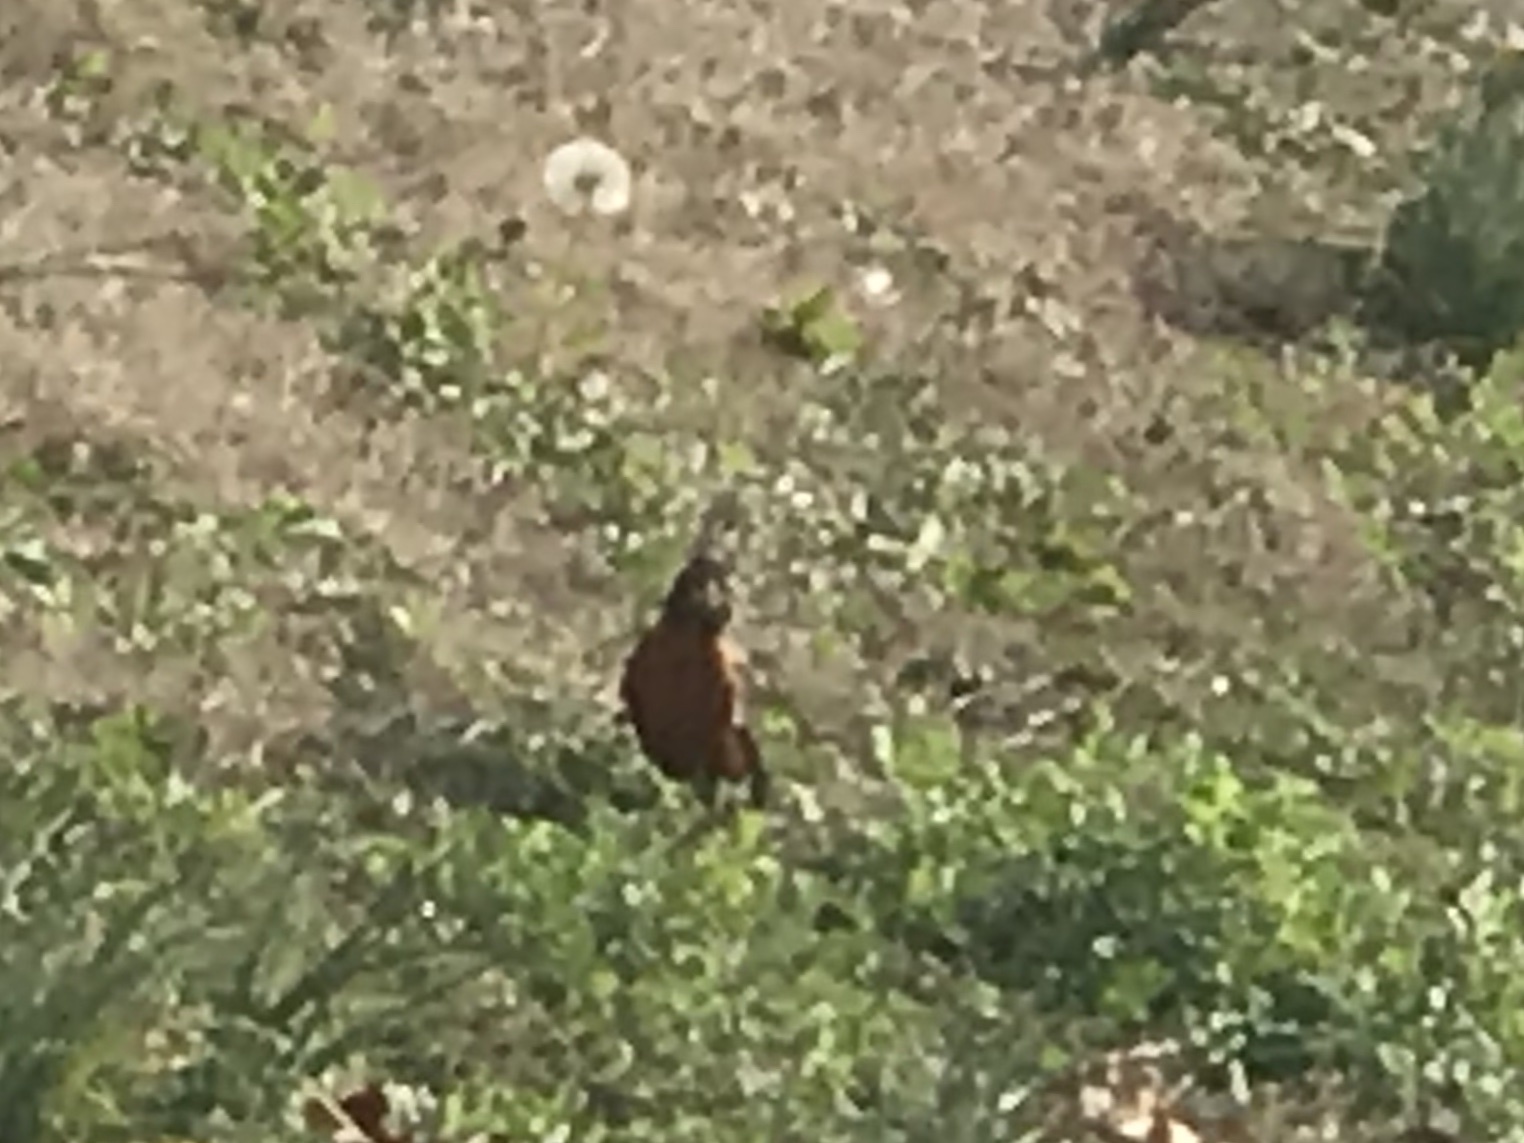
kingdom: Animalia
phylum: Chordata
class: Aves
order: Passeriformes
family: Turdidae
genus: Turdus
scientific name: Turdus migratorius
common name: American robin
